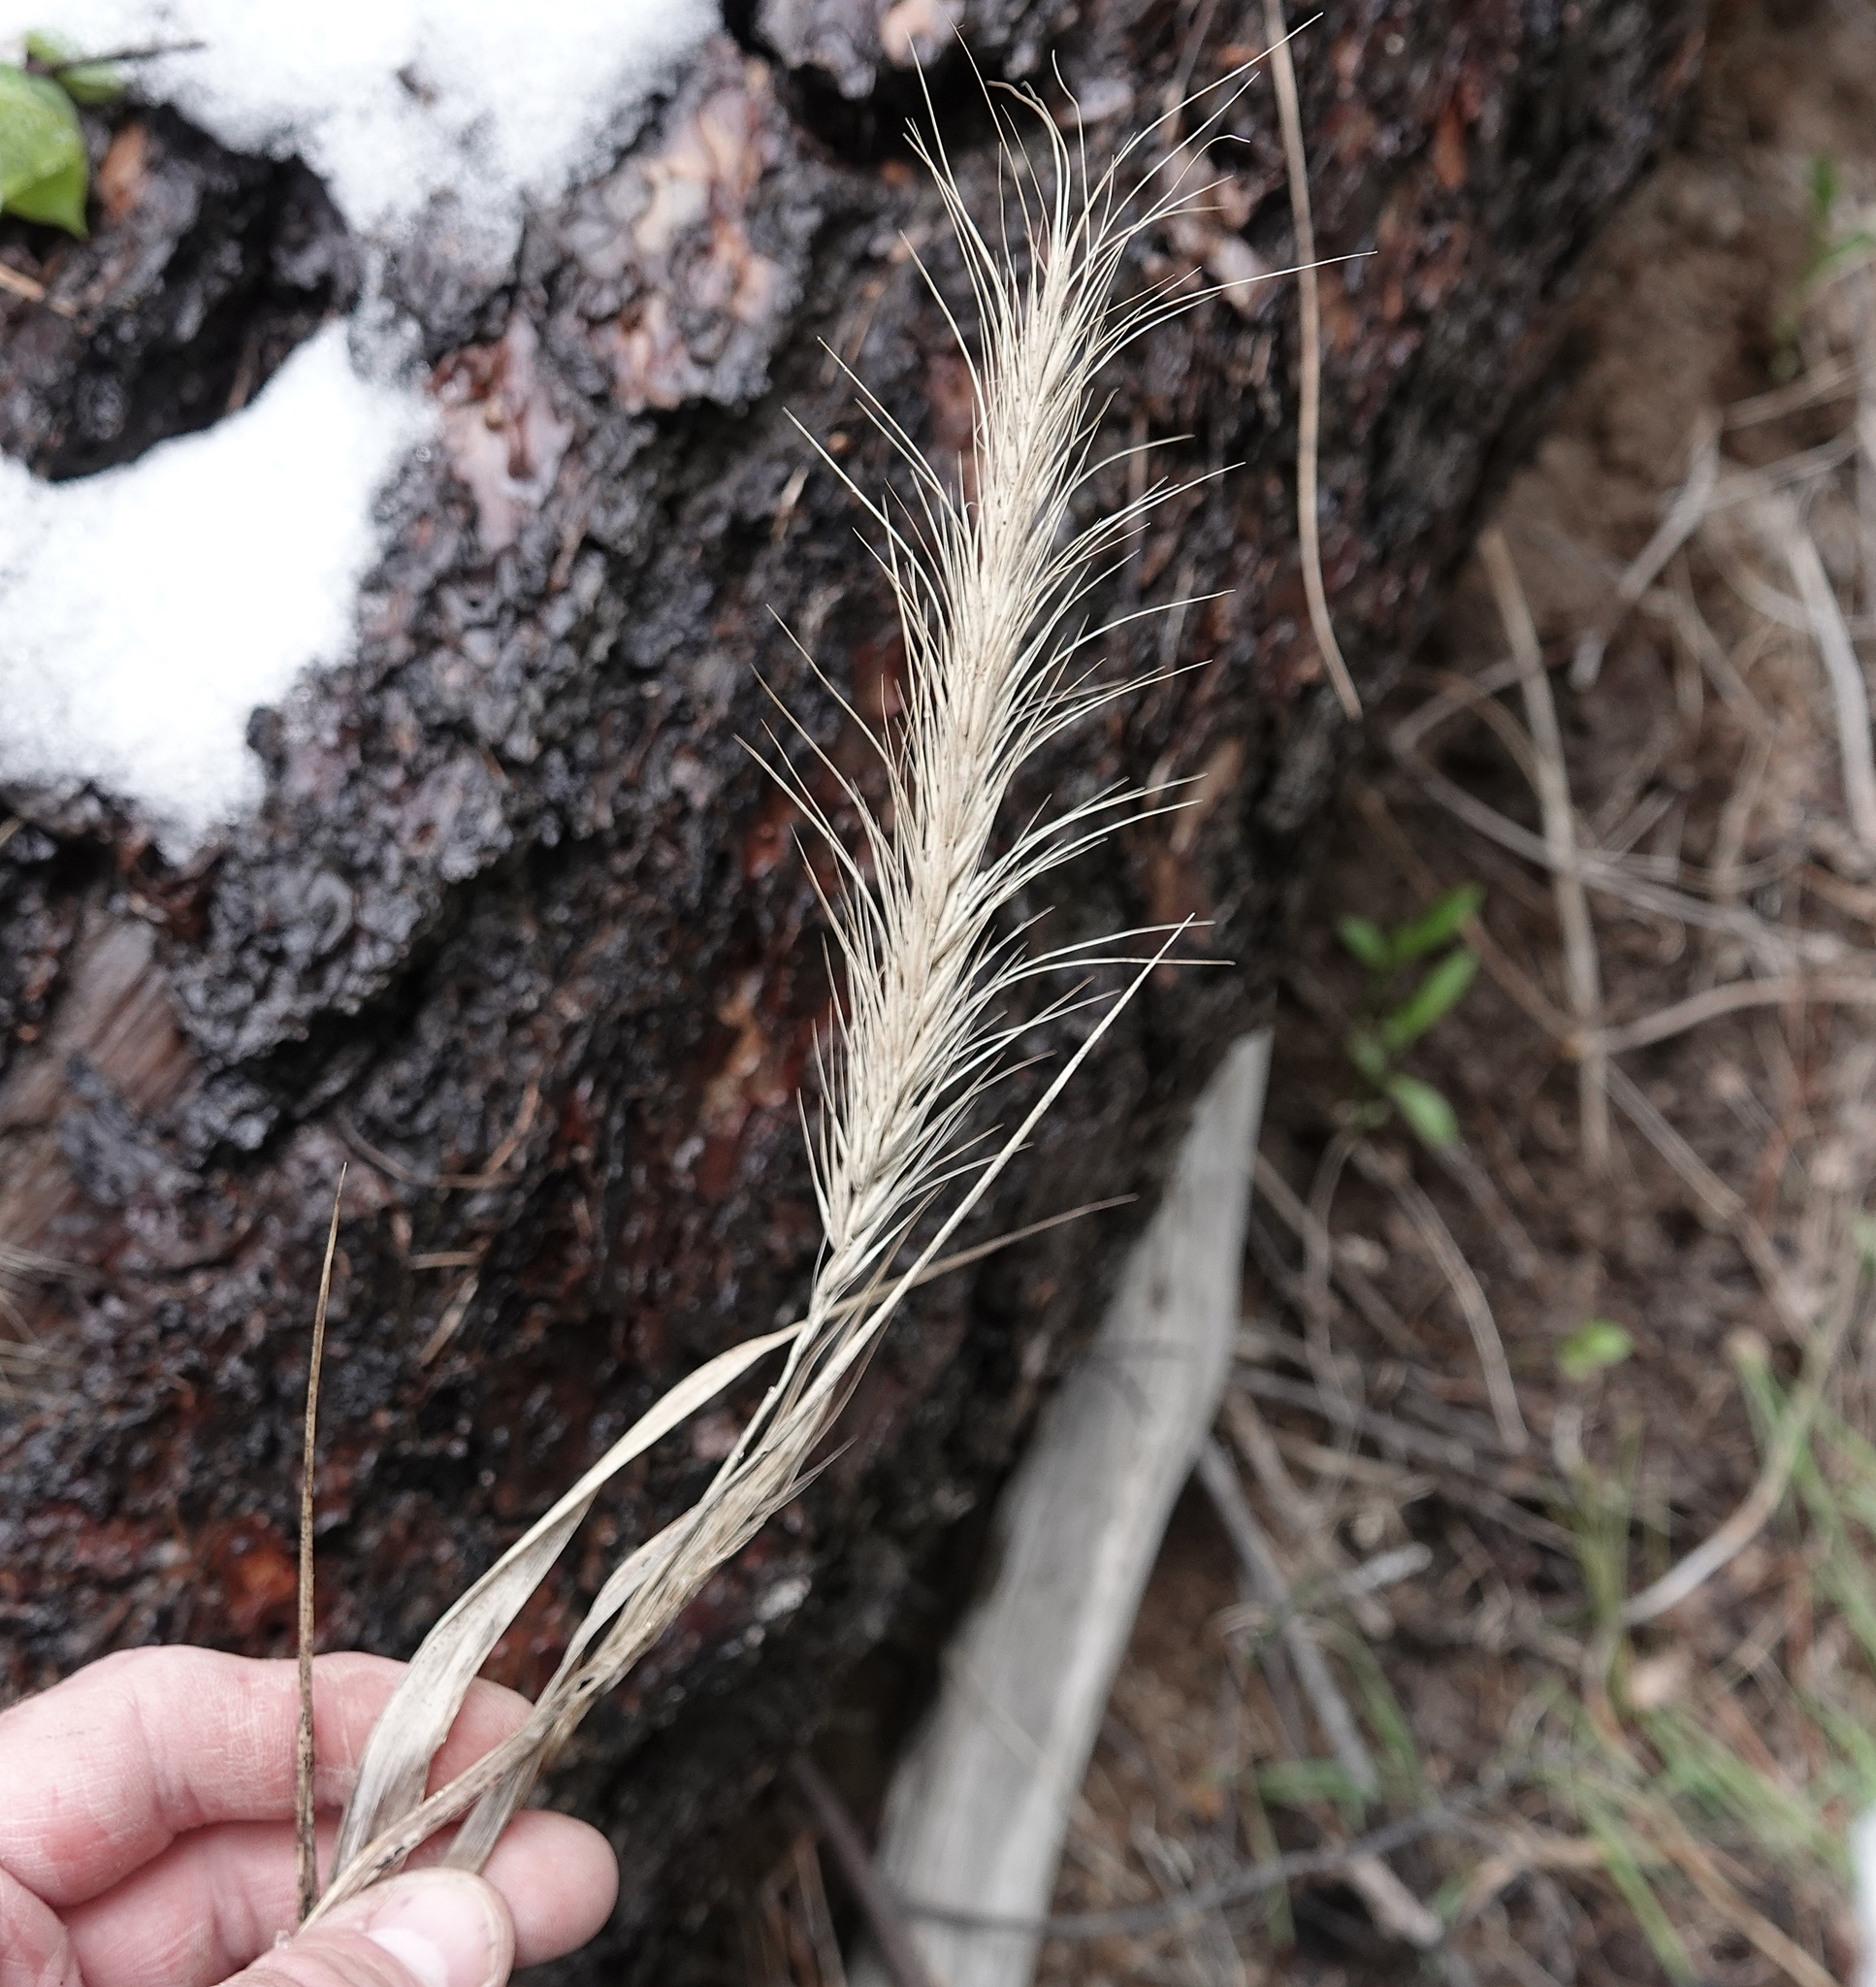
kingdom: Plantae
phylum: Tracheophyta
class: Liliopsida
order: Poales
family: Poaceae
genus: Elymus
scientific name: Elymus canadensis
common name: Canada wild rye
